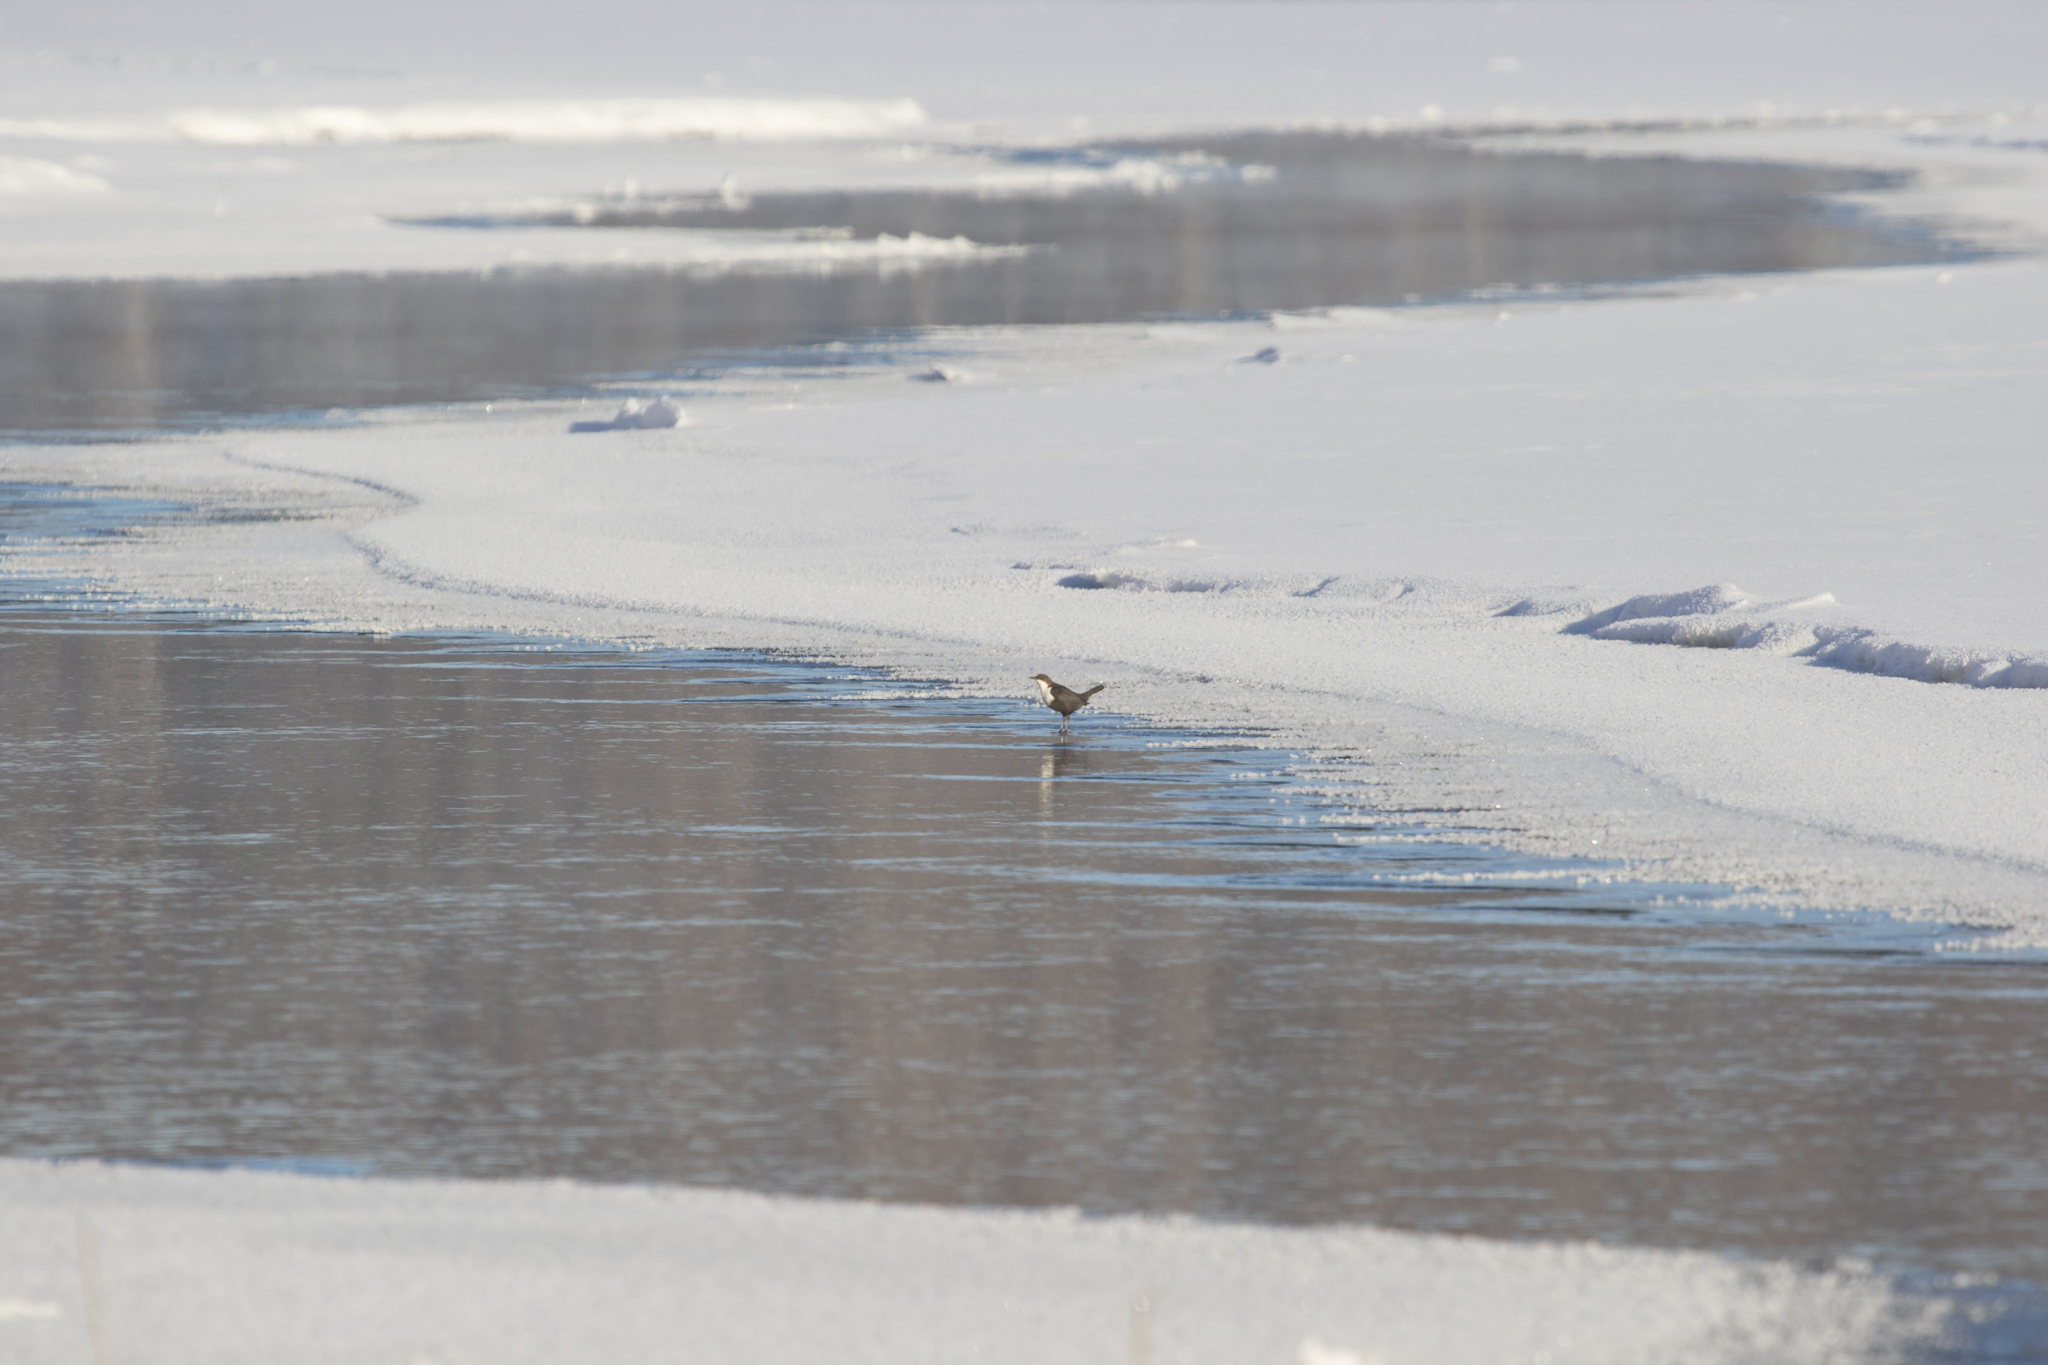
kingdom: Animalia
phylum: Chordata
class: Aves
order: Passeriformes
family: Cinclidae
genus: Cinclus
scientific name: Cinclus cinclus
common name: White-throated dipper
